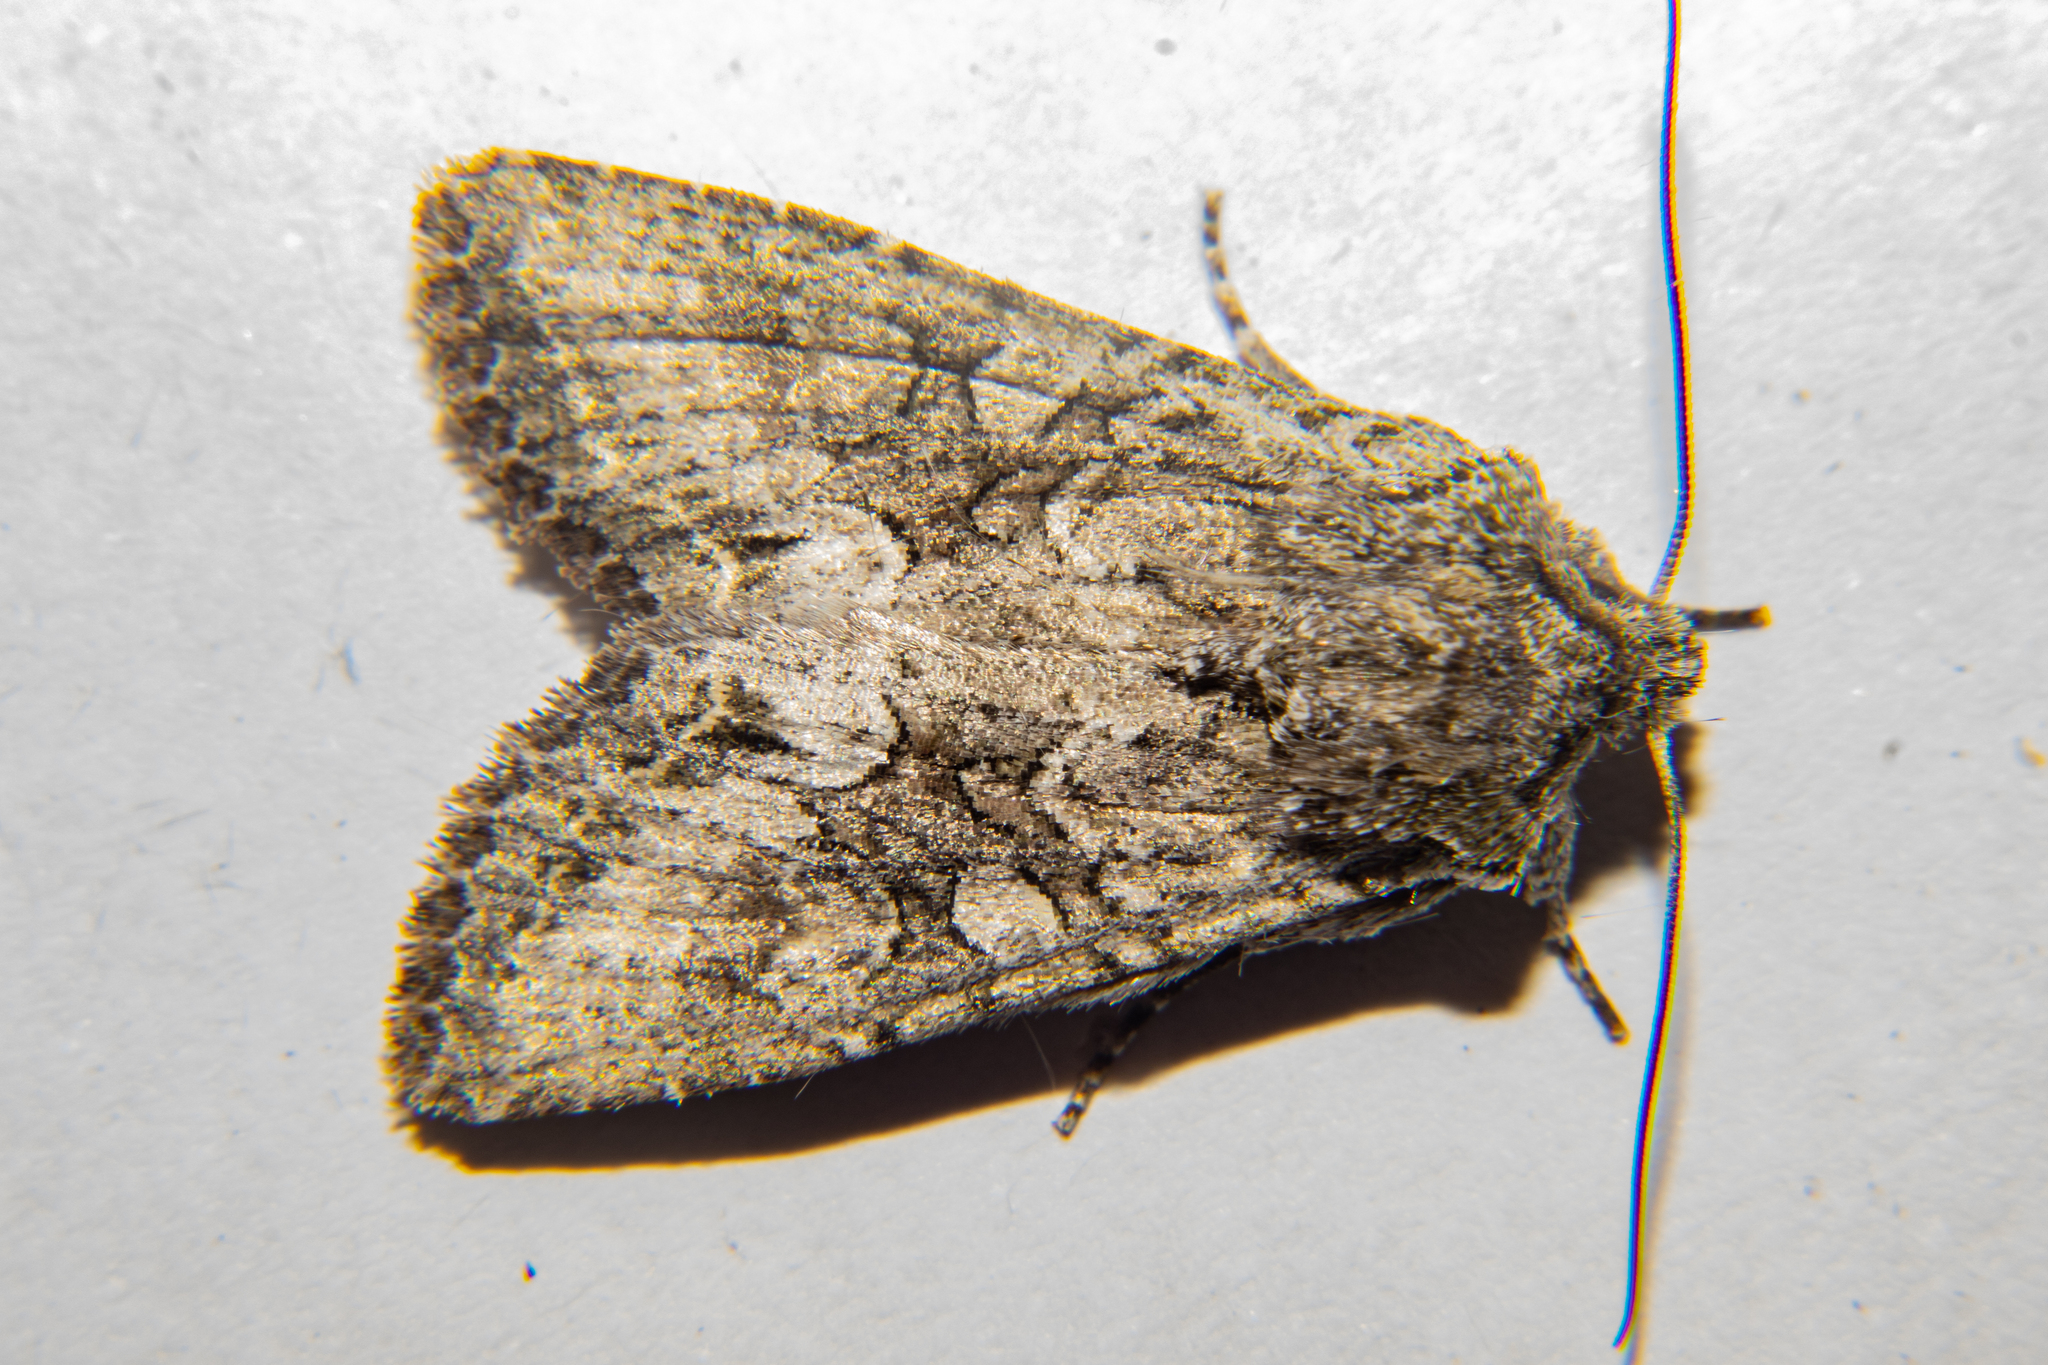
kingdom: Animalia
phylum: Arthropoda
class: Insecta
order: Lepidoptera
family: Noctuidae
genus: Ichneutica
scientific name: Ichneutica mutans
